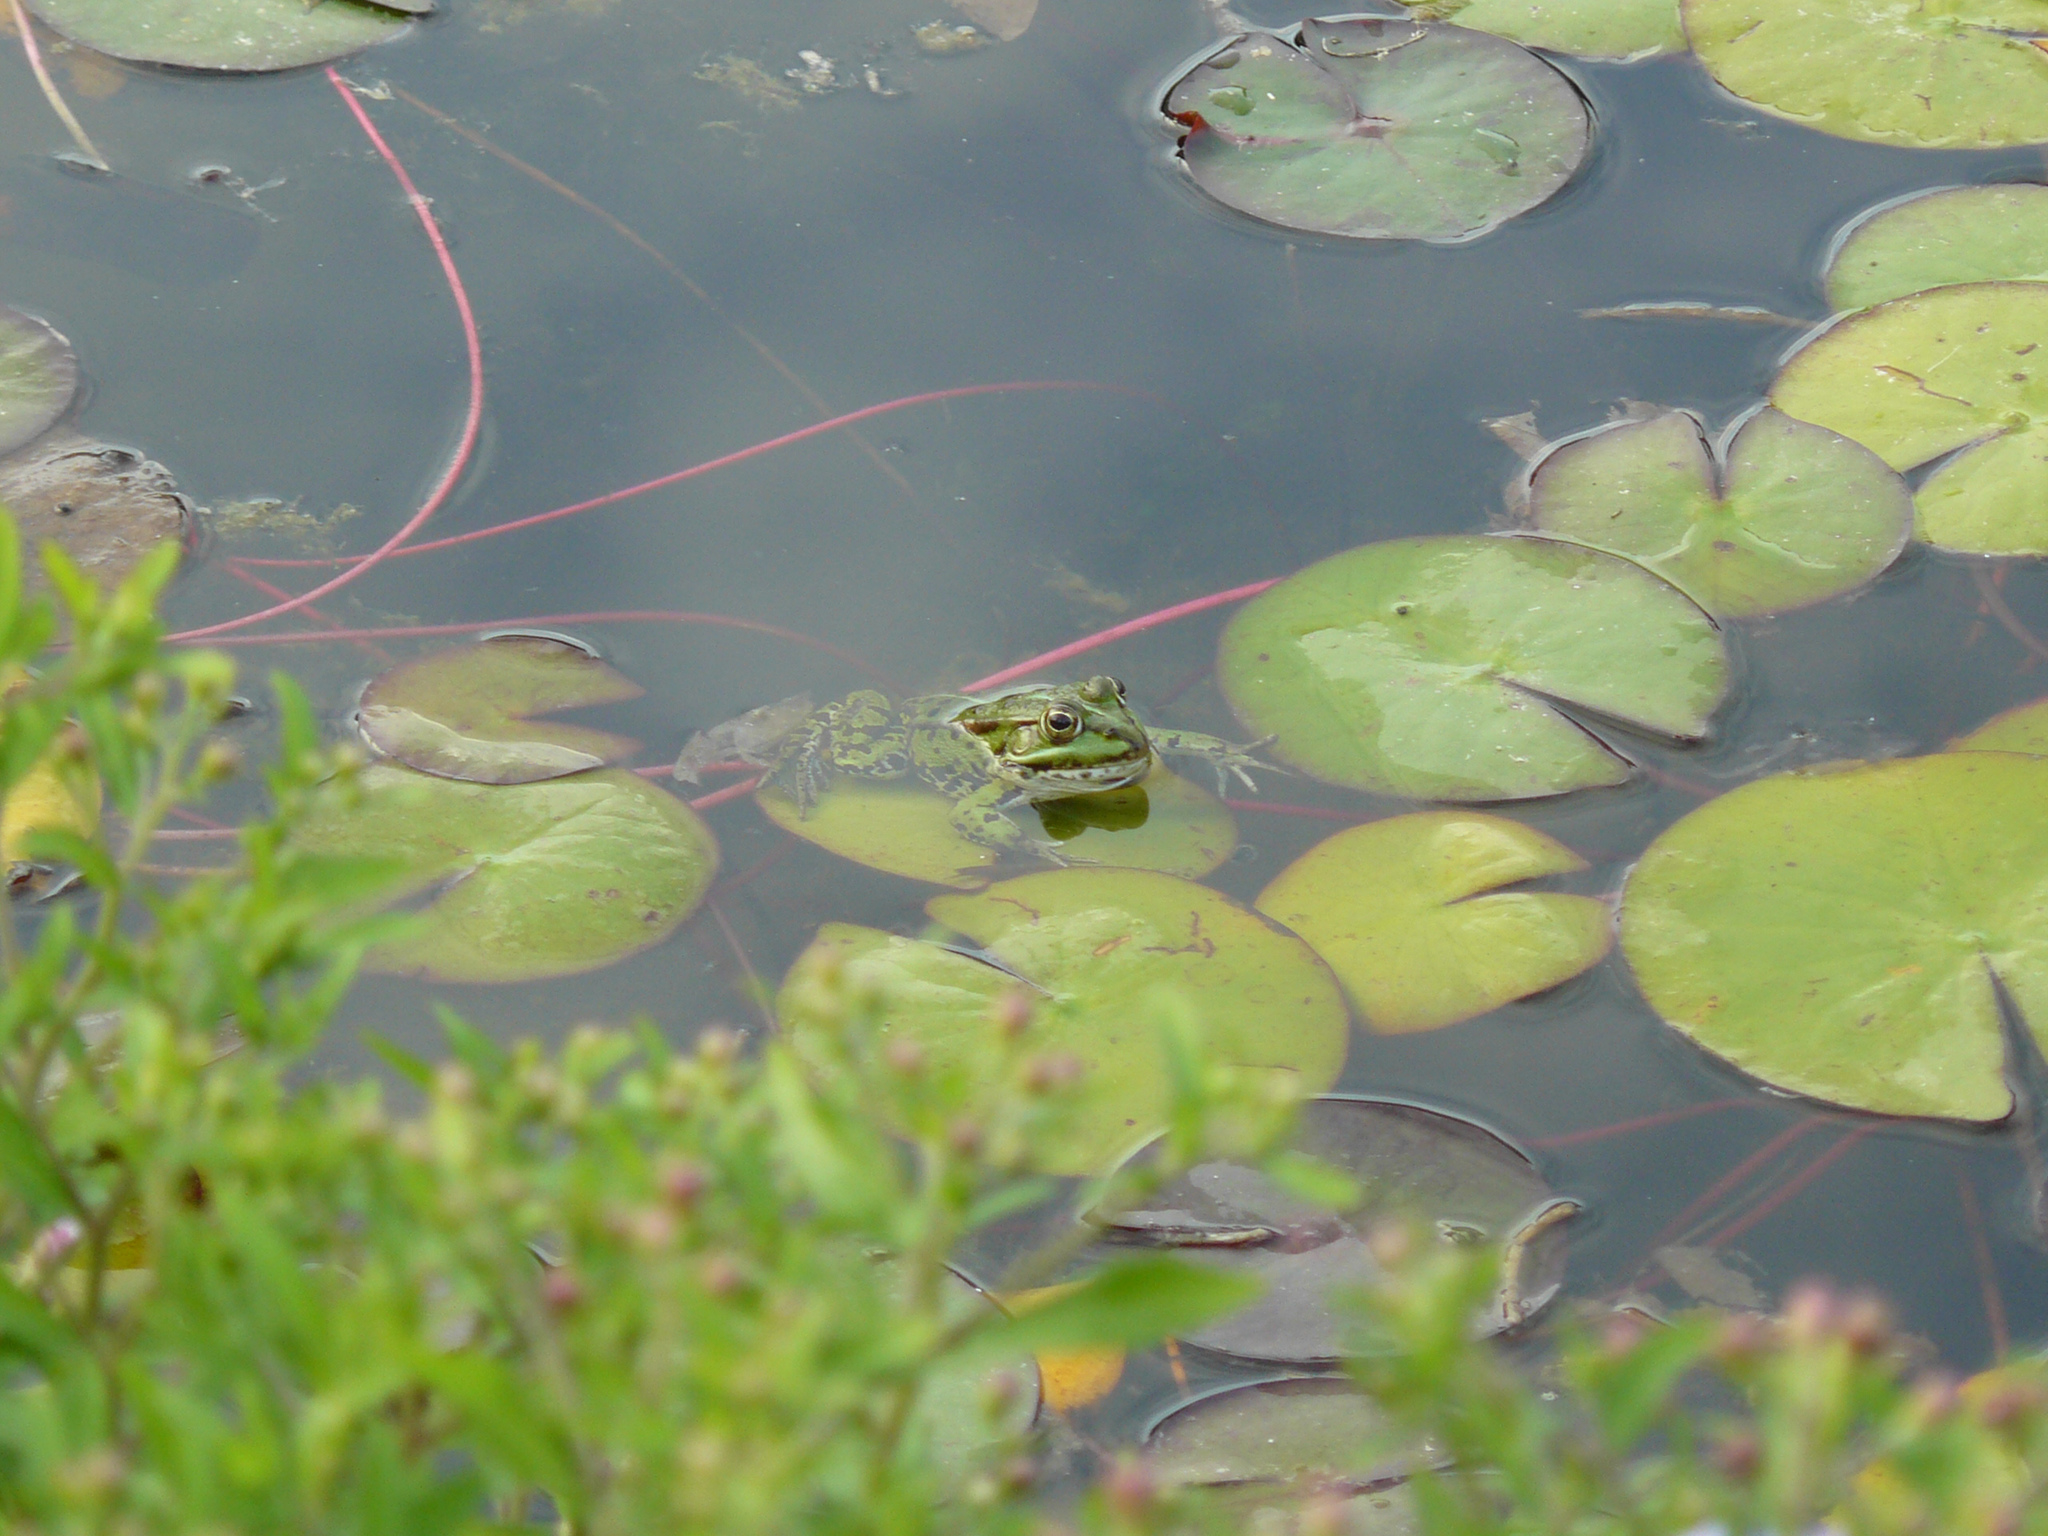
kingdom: Animalia
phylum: Chordata
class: Amphibia
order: Anura
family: Ranidae
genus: Pelophylax
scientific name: Pelophylax
